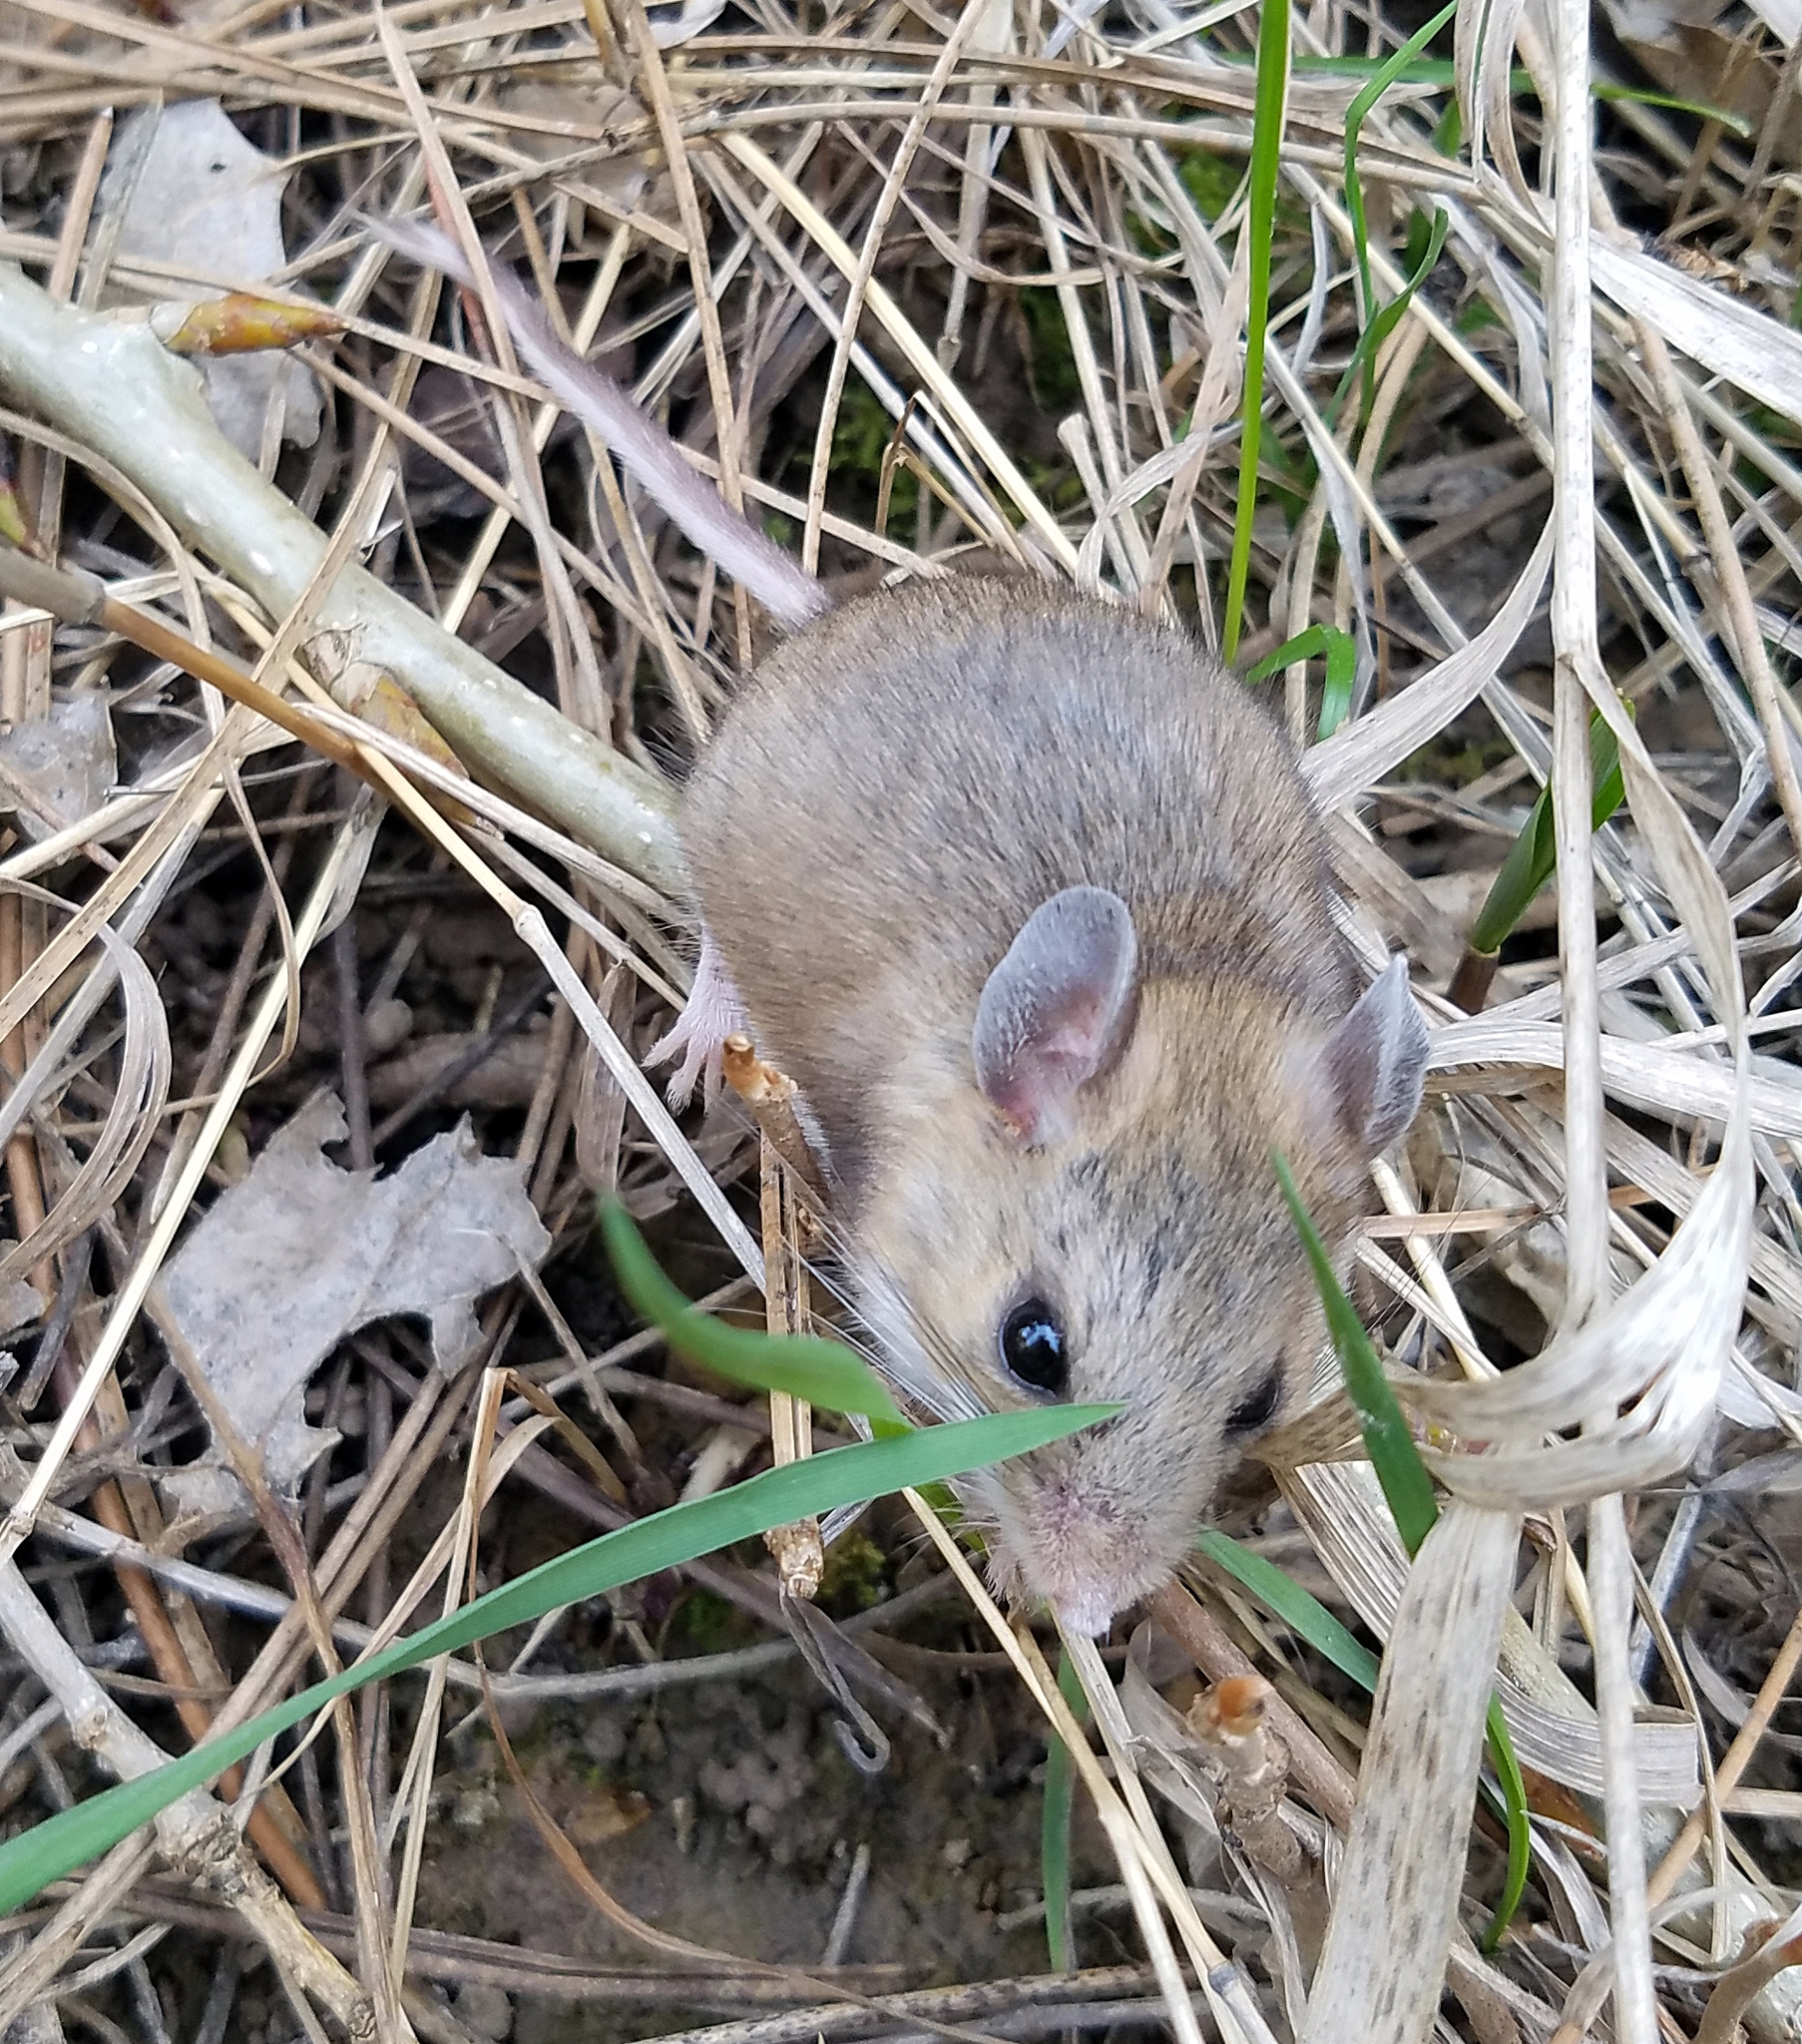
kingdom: Animalia
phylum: Chordata
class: Mammalia
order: Rodentia
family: Cricetidae
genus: Peromyscus
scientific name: Peromyscus maniculatus
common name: Deer mouse
